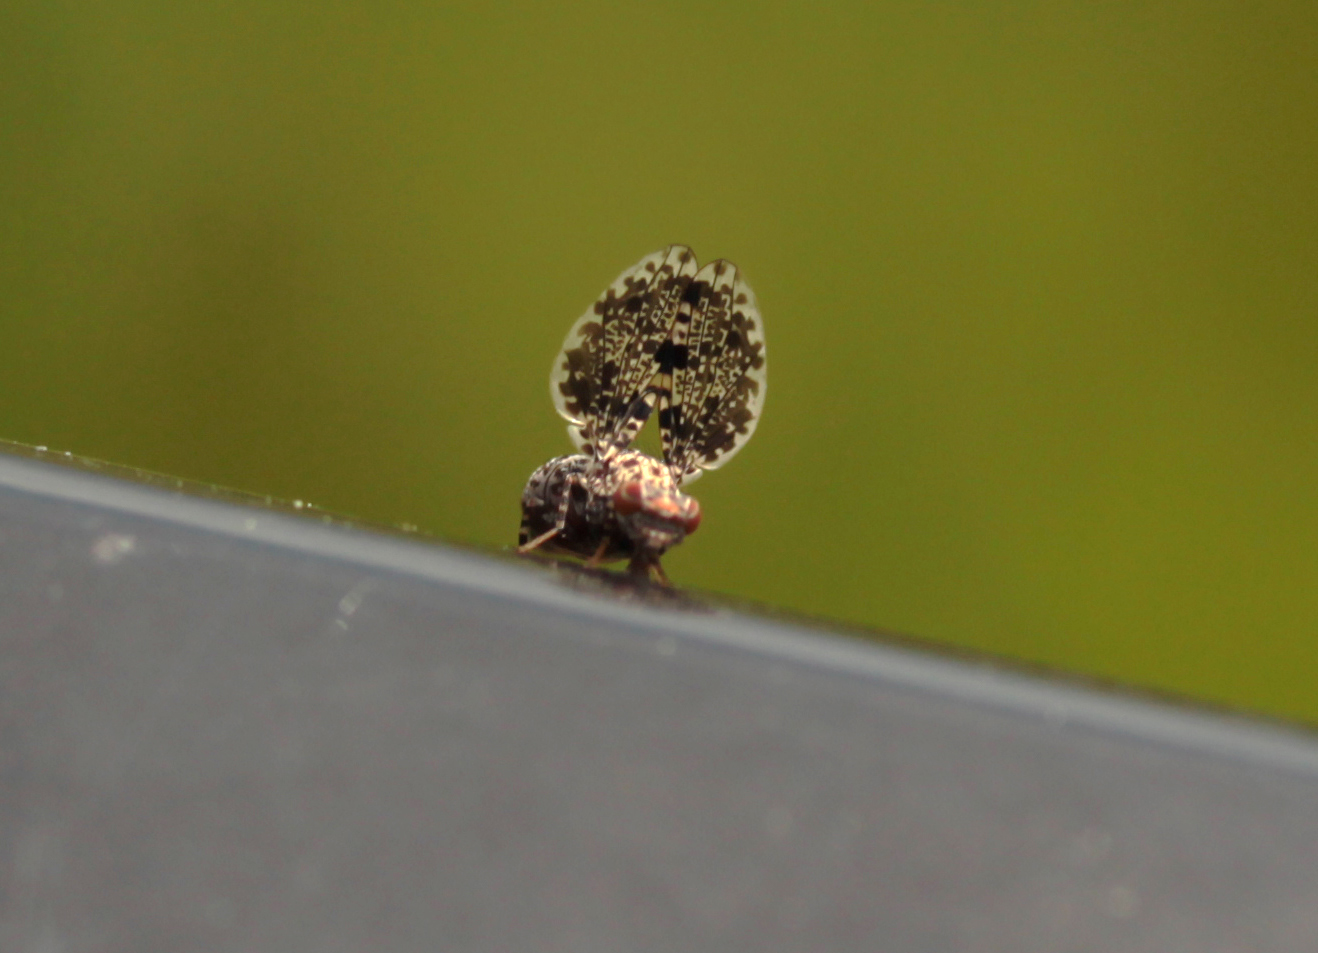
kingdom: Animalia
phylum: Arthropoda
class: Insecta
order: Diptera
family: Ulidiidae
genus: Callopistromyia
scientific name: Callopistromyia annulipes
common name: Peacock fly
